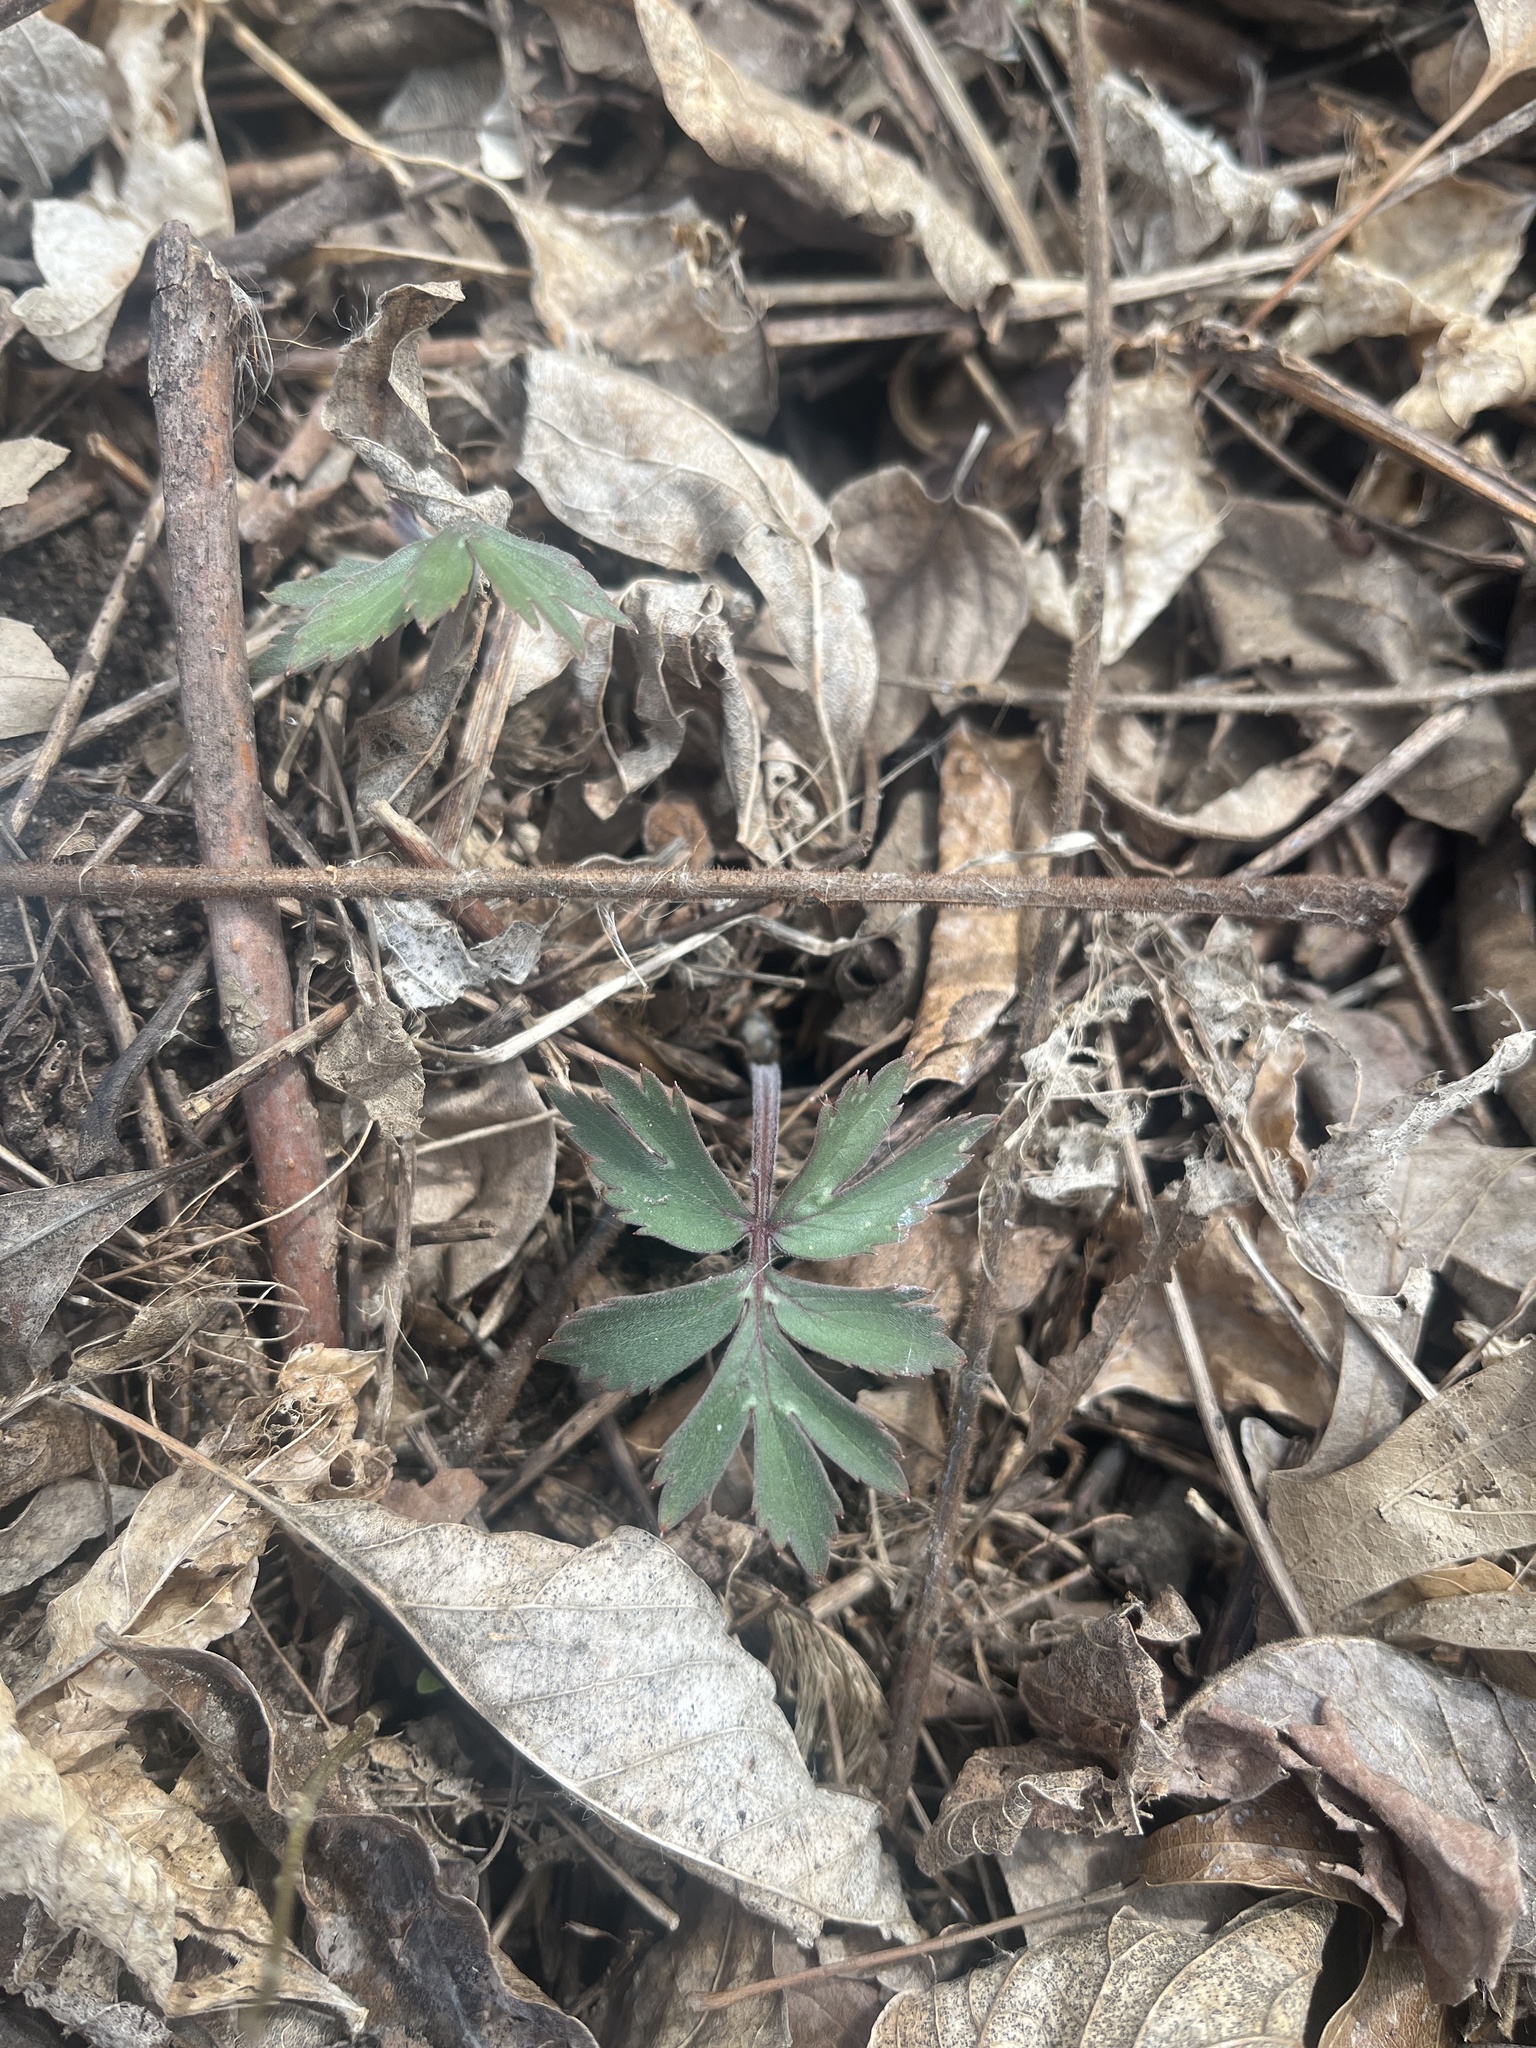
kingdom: Plantae
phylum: Tracheophyta
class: Magnoliopsida
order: Boraginales
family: Hydrophyllaceae
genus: Hydrophyllum
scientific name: Hydrophyllum virginianum
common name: Virginia waterleaf
